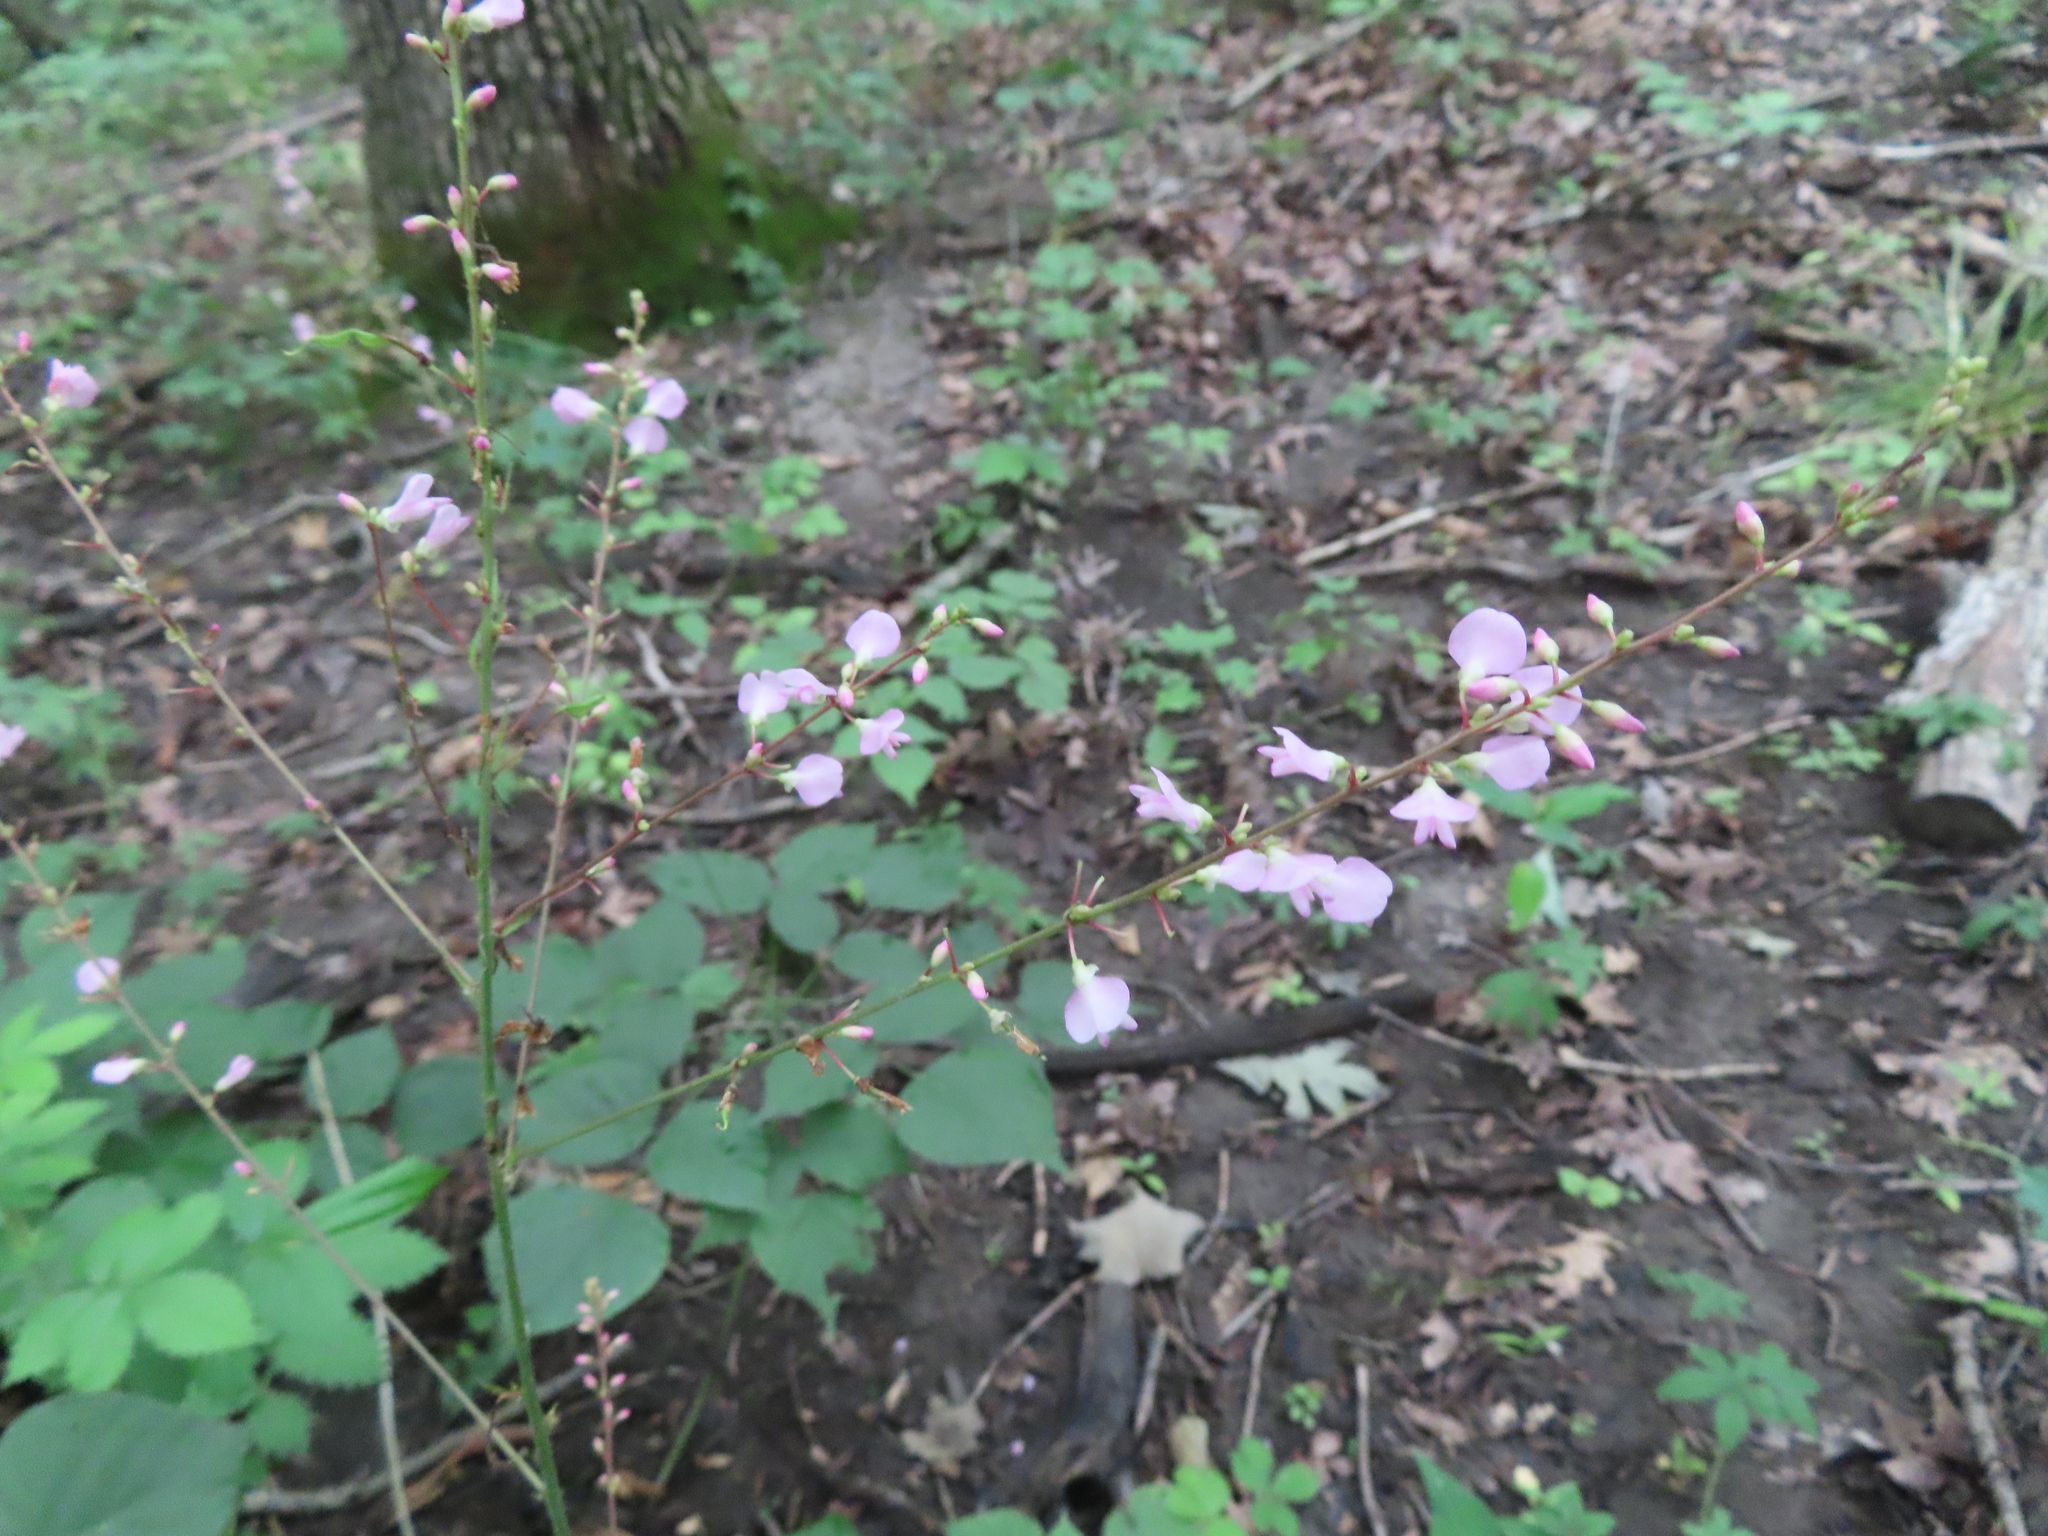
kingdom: Plantae
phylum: Tracheophyta
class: Magnoliopsida
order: Fabales
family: Fabaceae
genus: Hylodesmum
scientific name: Hylodesmum glutinosum
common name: Clustered-leaved tick-trefoil
